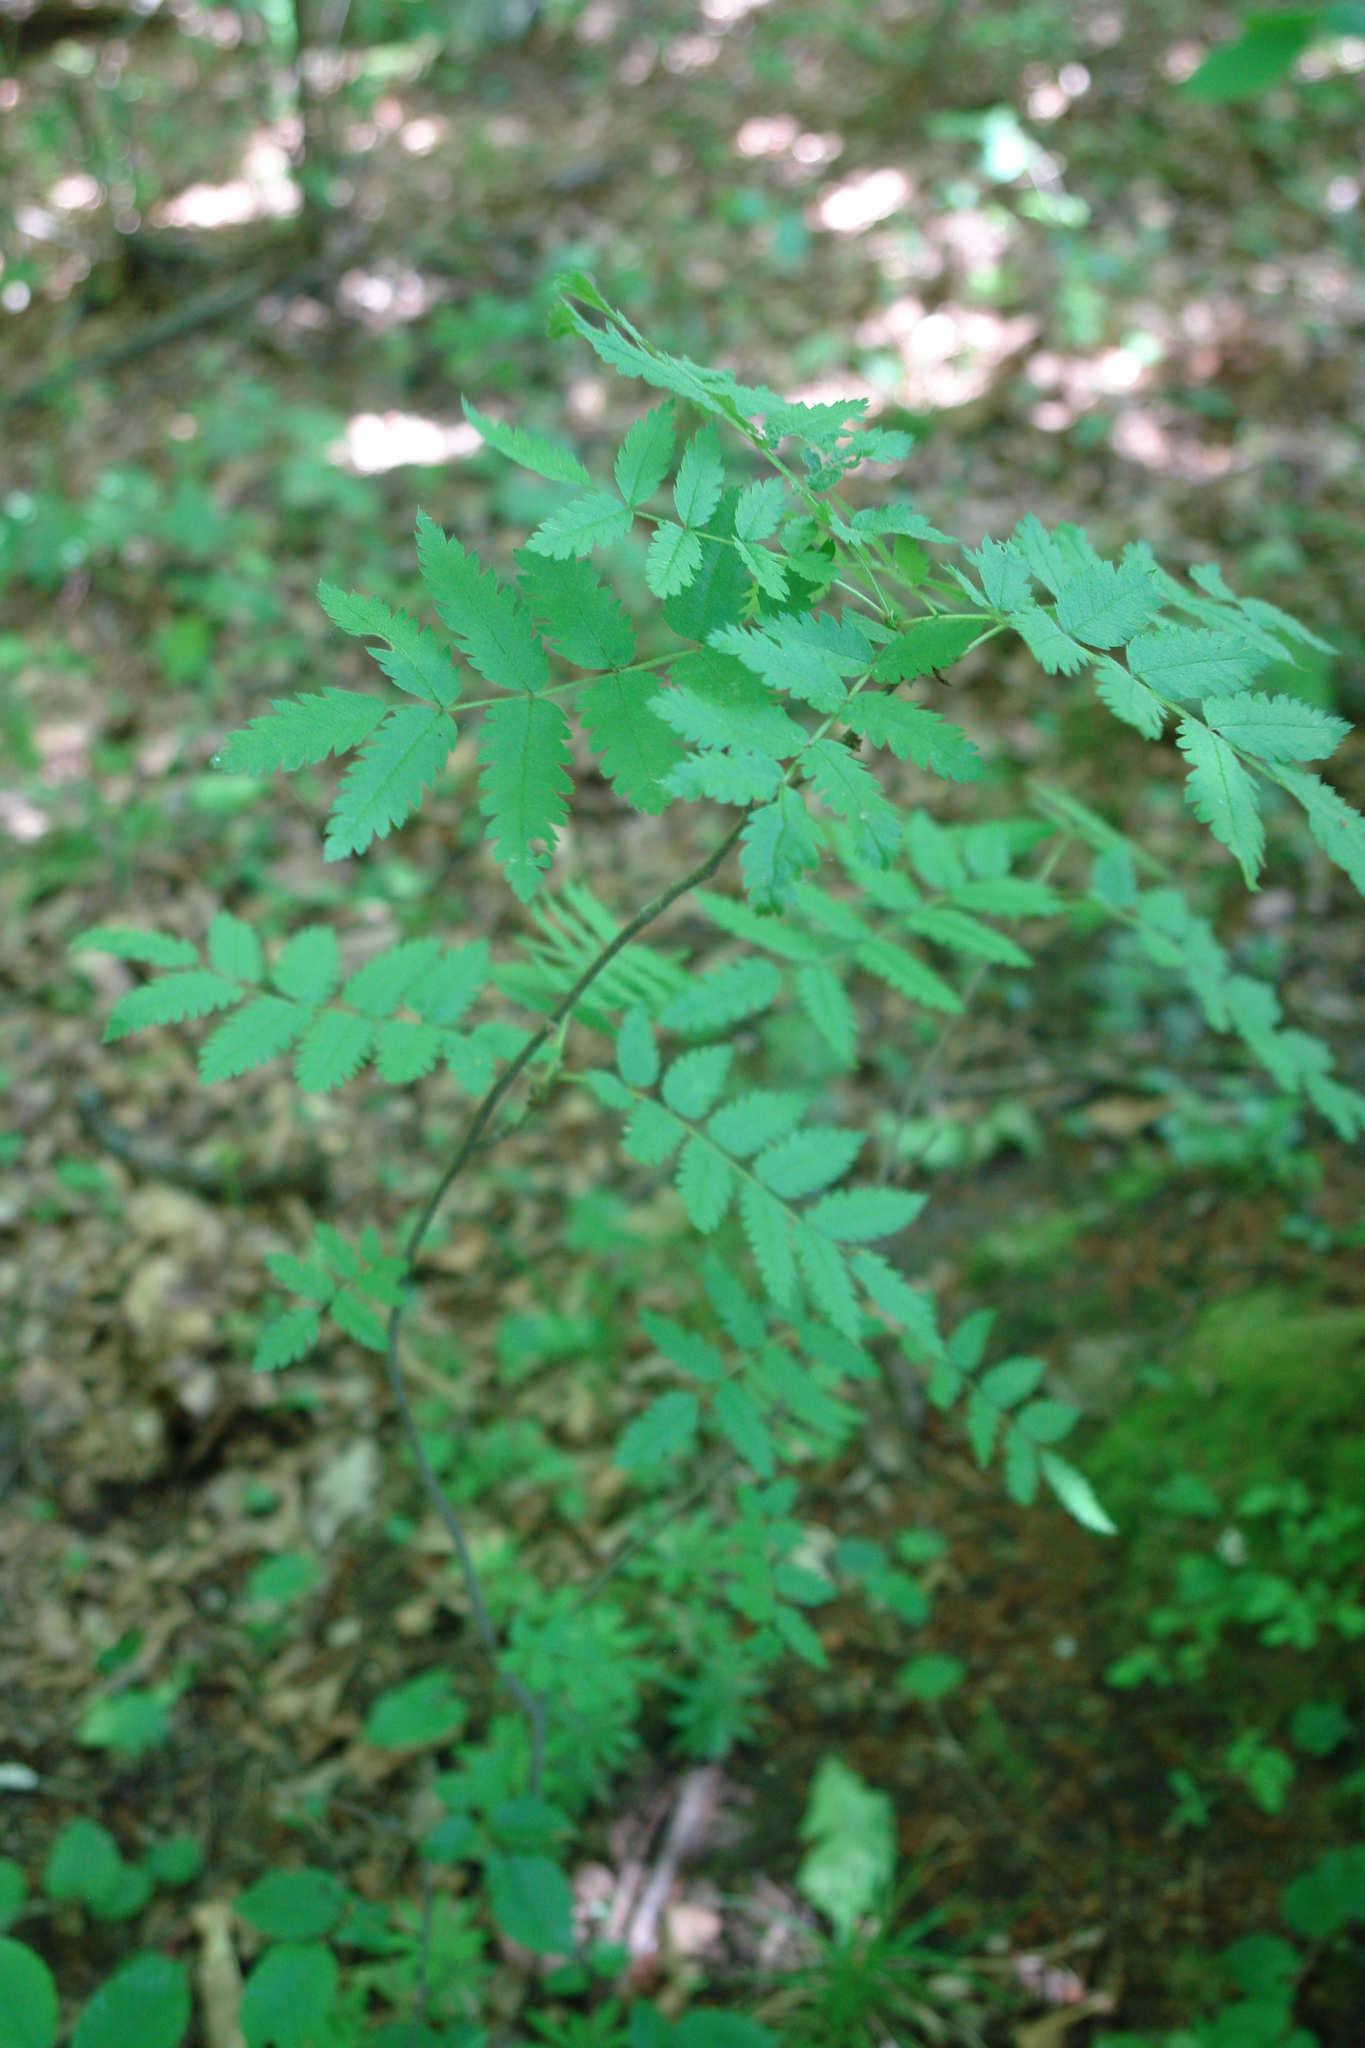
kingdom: Plantae
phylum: Tracheophyta
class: Magnoliopsida
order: Rosales
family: Rosaceae
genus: Sorbus
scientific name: Sorbus aucuparia
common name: Rowan
